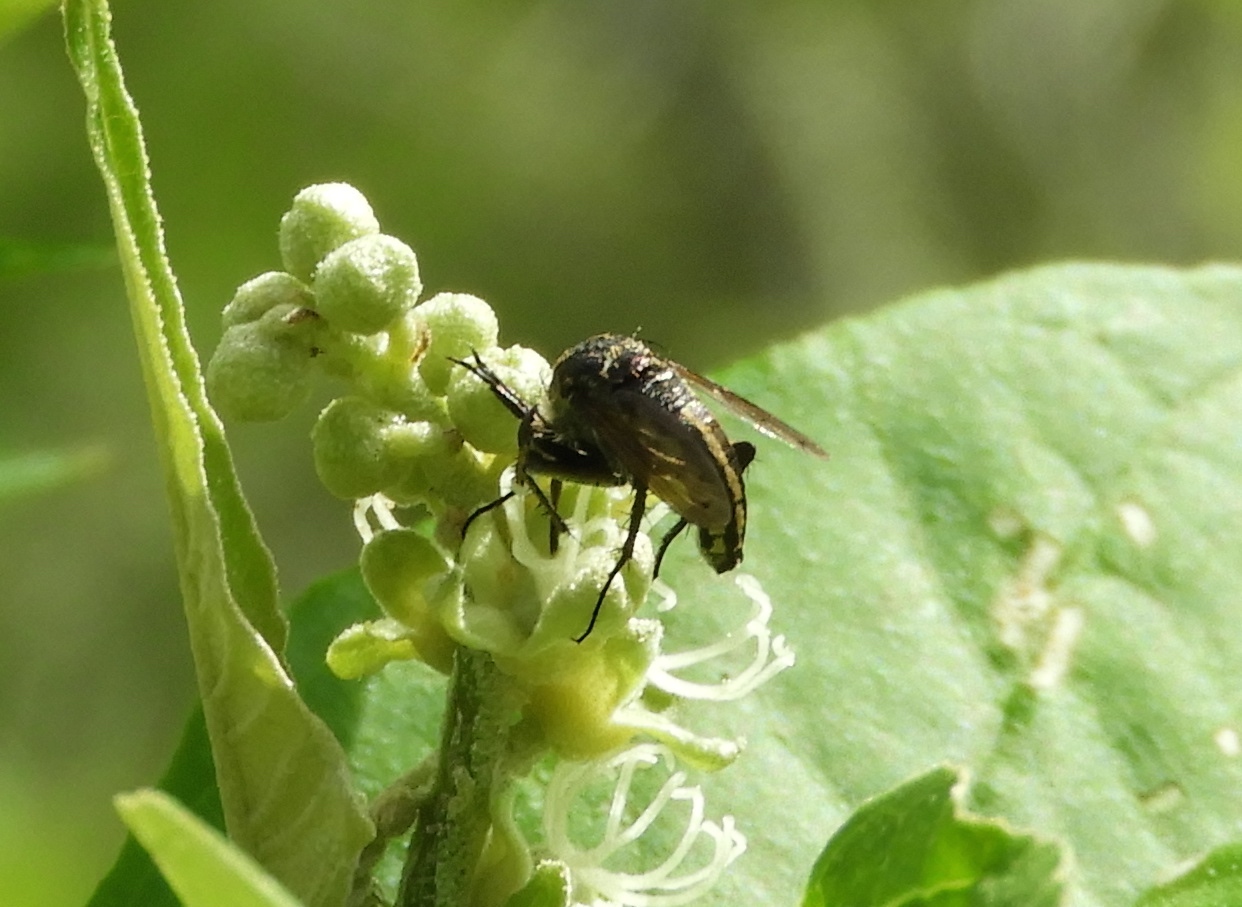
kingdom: Animalia
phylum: Arthropoda
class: Insecta
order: Diptera
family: Bombyliidae
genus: Toxophora
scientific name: Toxophora virgata
